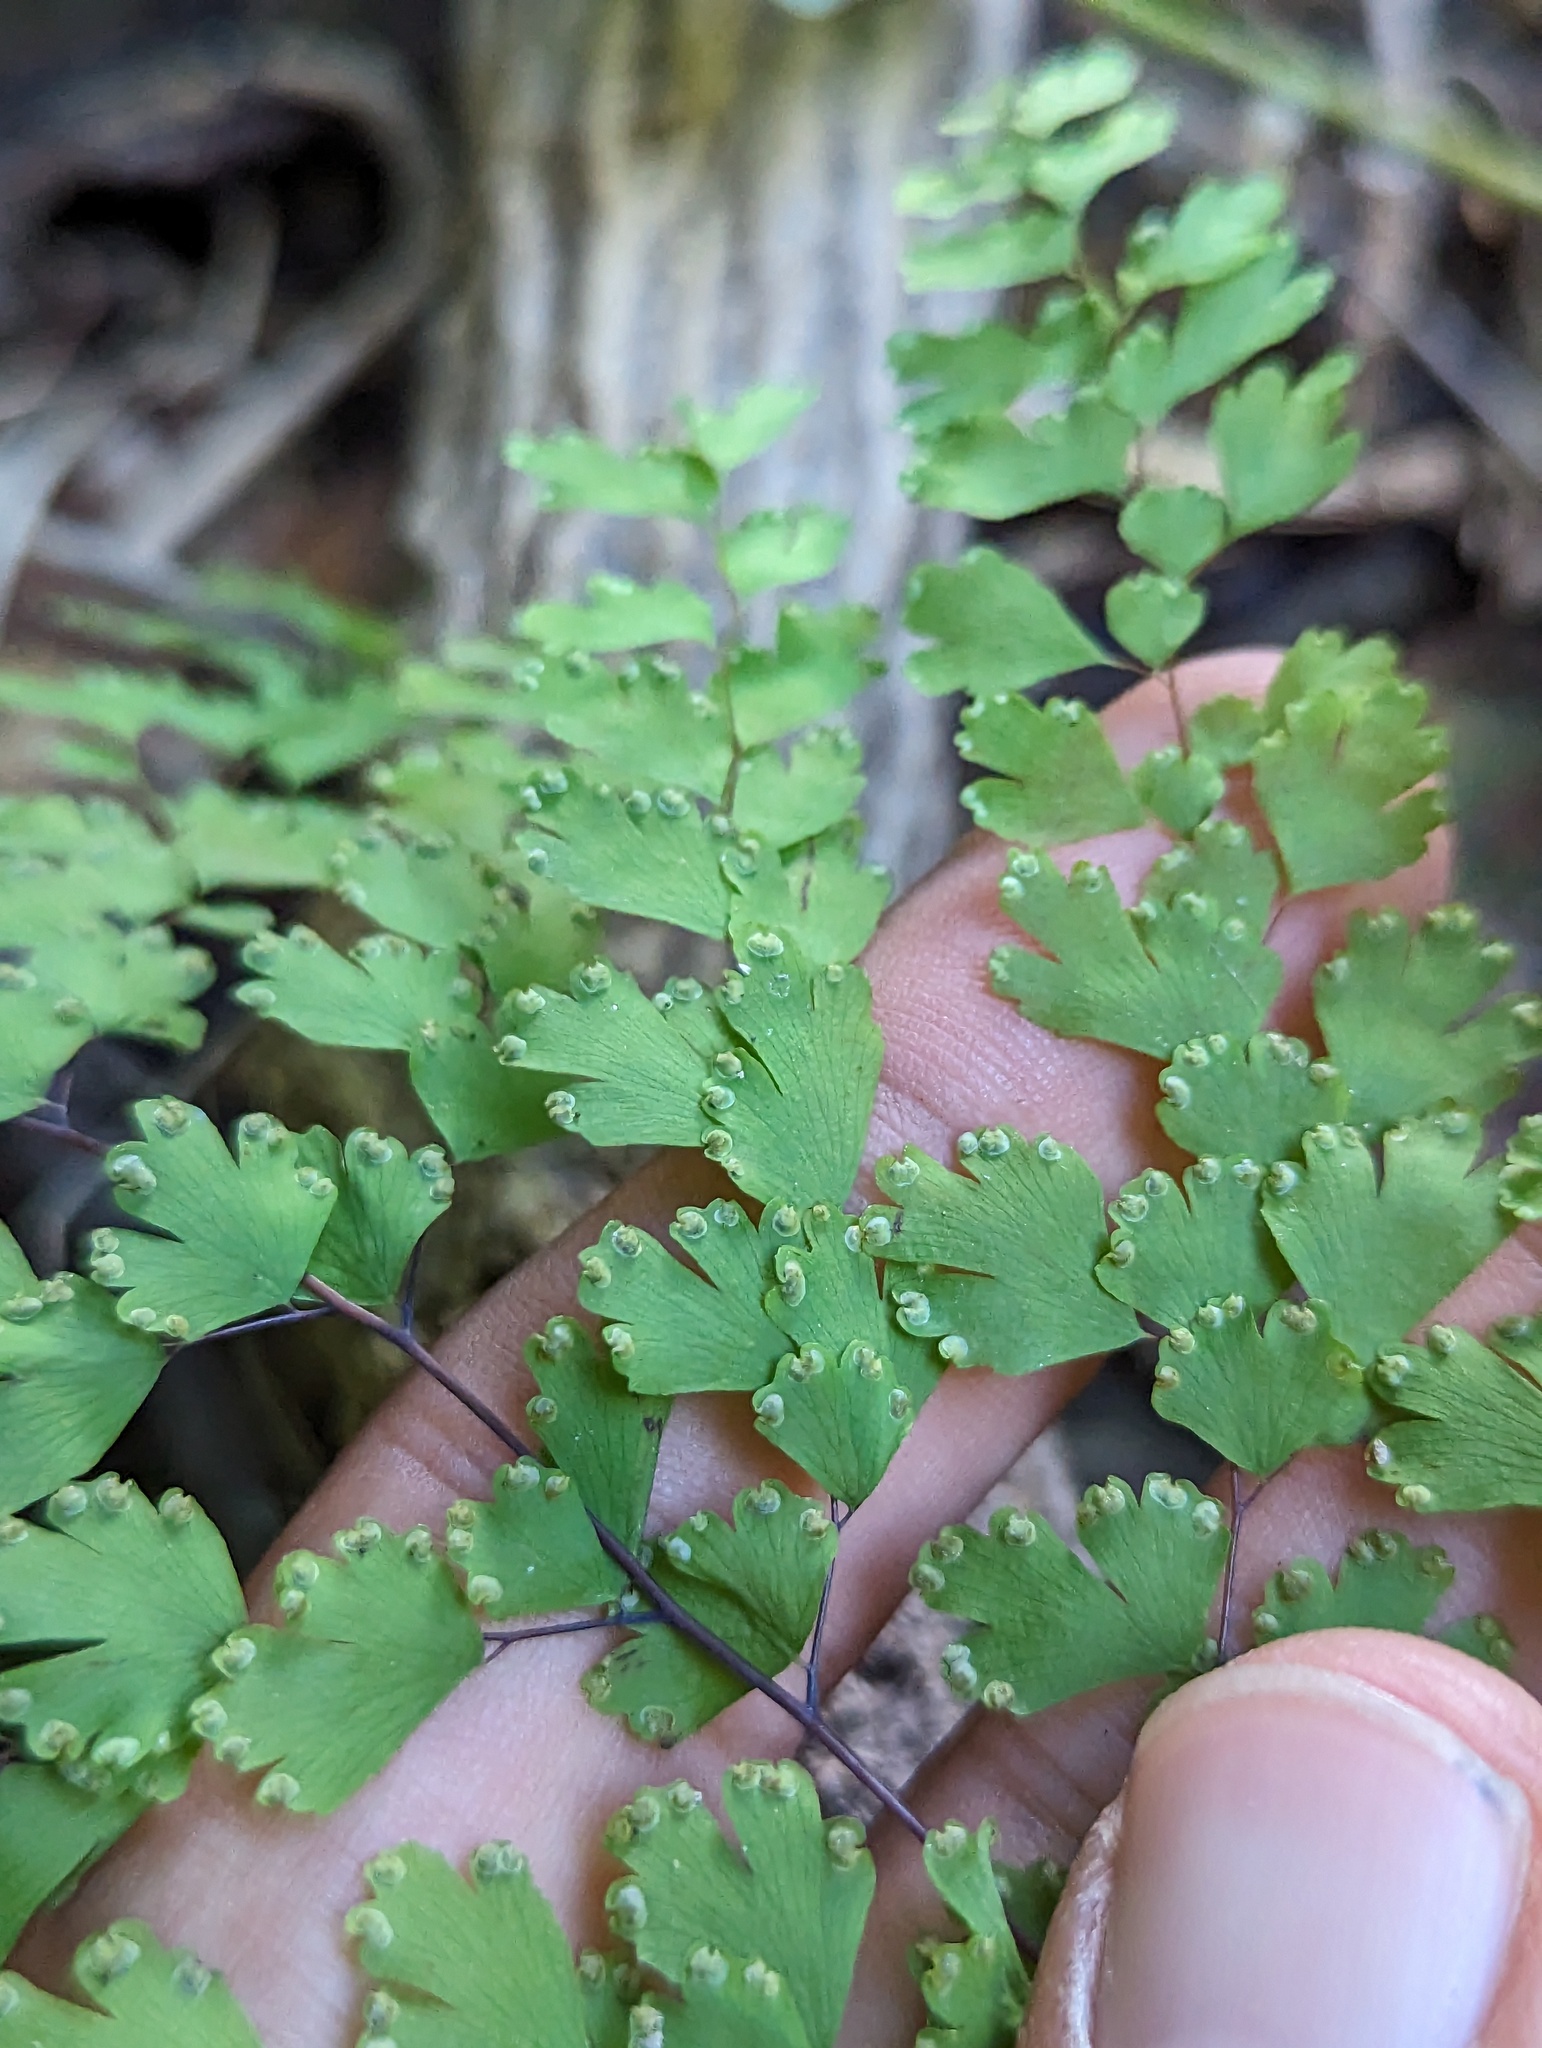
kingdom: Plantae
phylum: Tracheophyta
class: Polypodiopsida
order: Polypodiales
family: Pteridaceae
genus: Adiantum
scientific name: Adiantum concinnum
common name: Brittle maidenhair fern
